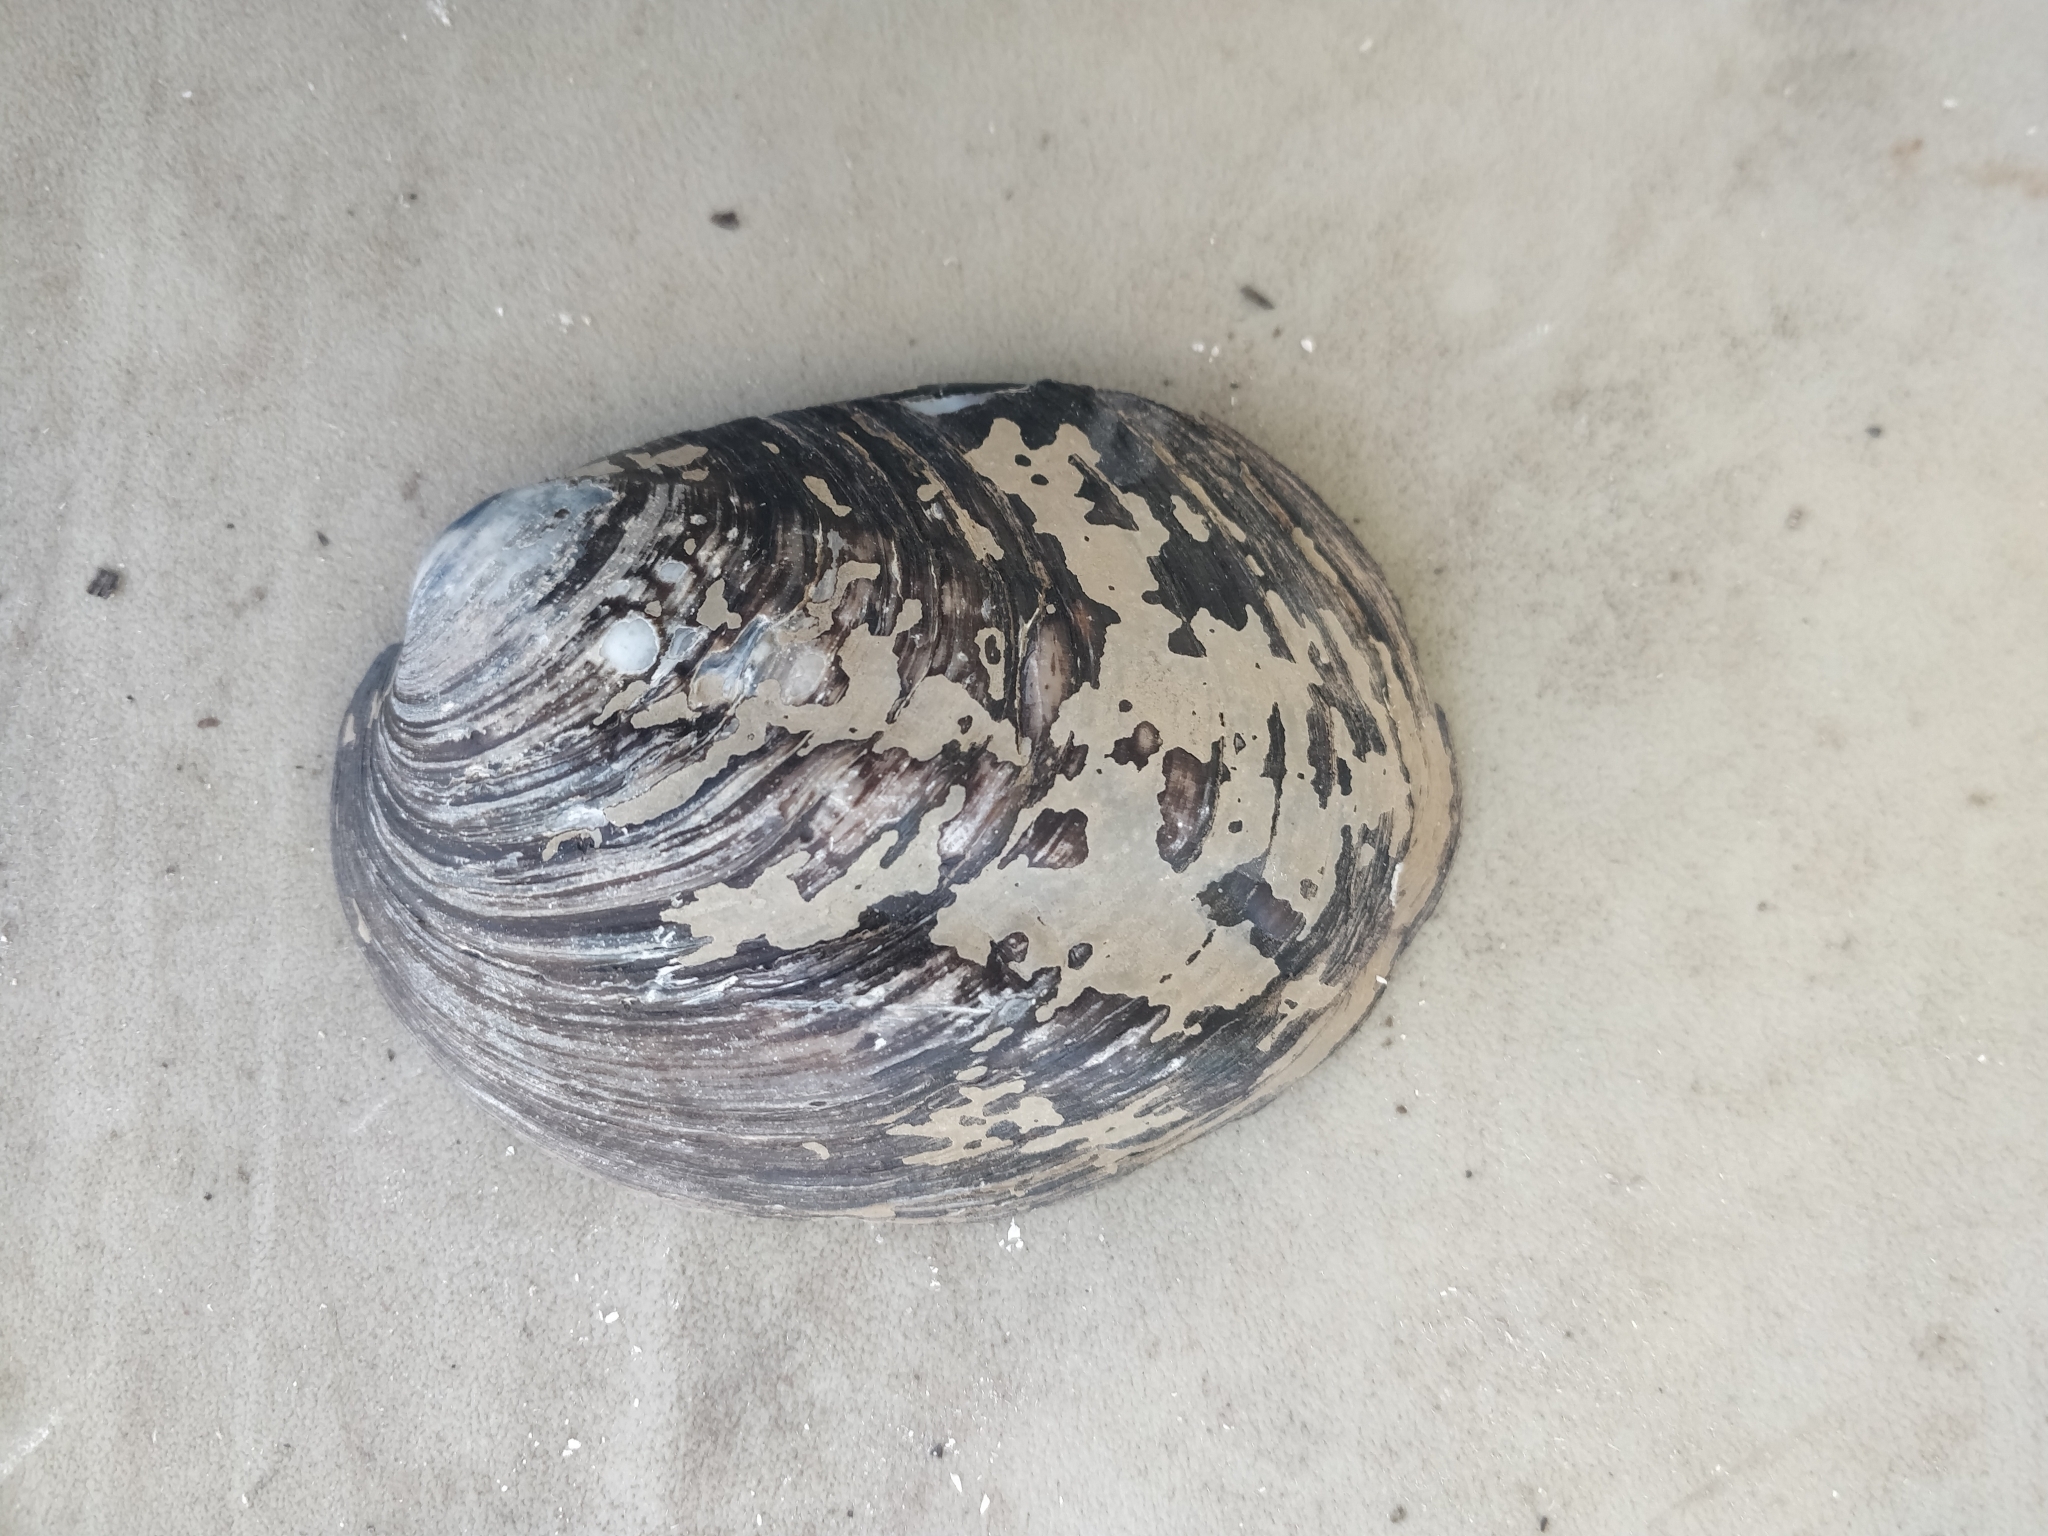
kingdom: Animalia
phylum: Mollusca
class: Bivalvia
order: Unionida
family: Unionidae
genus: Amblema
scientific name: Amblema plicata
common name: Threeridge
